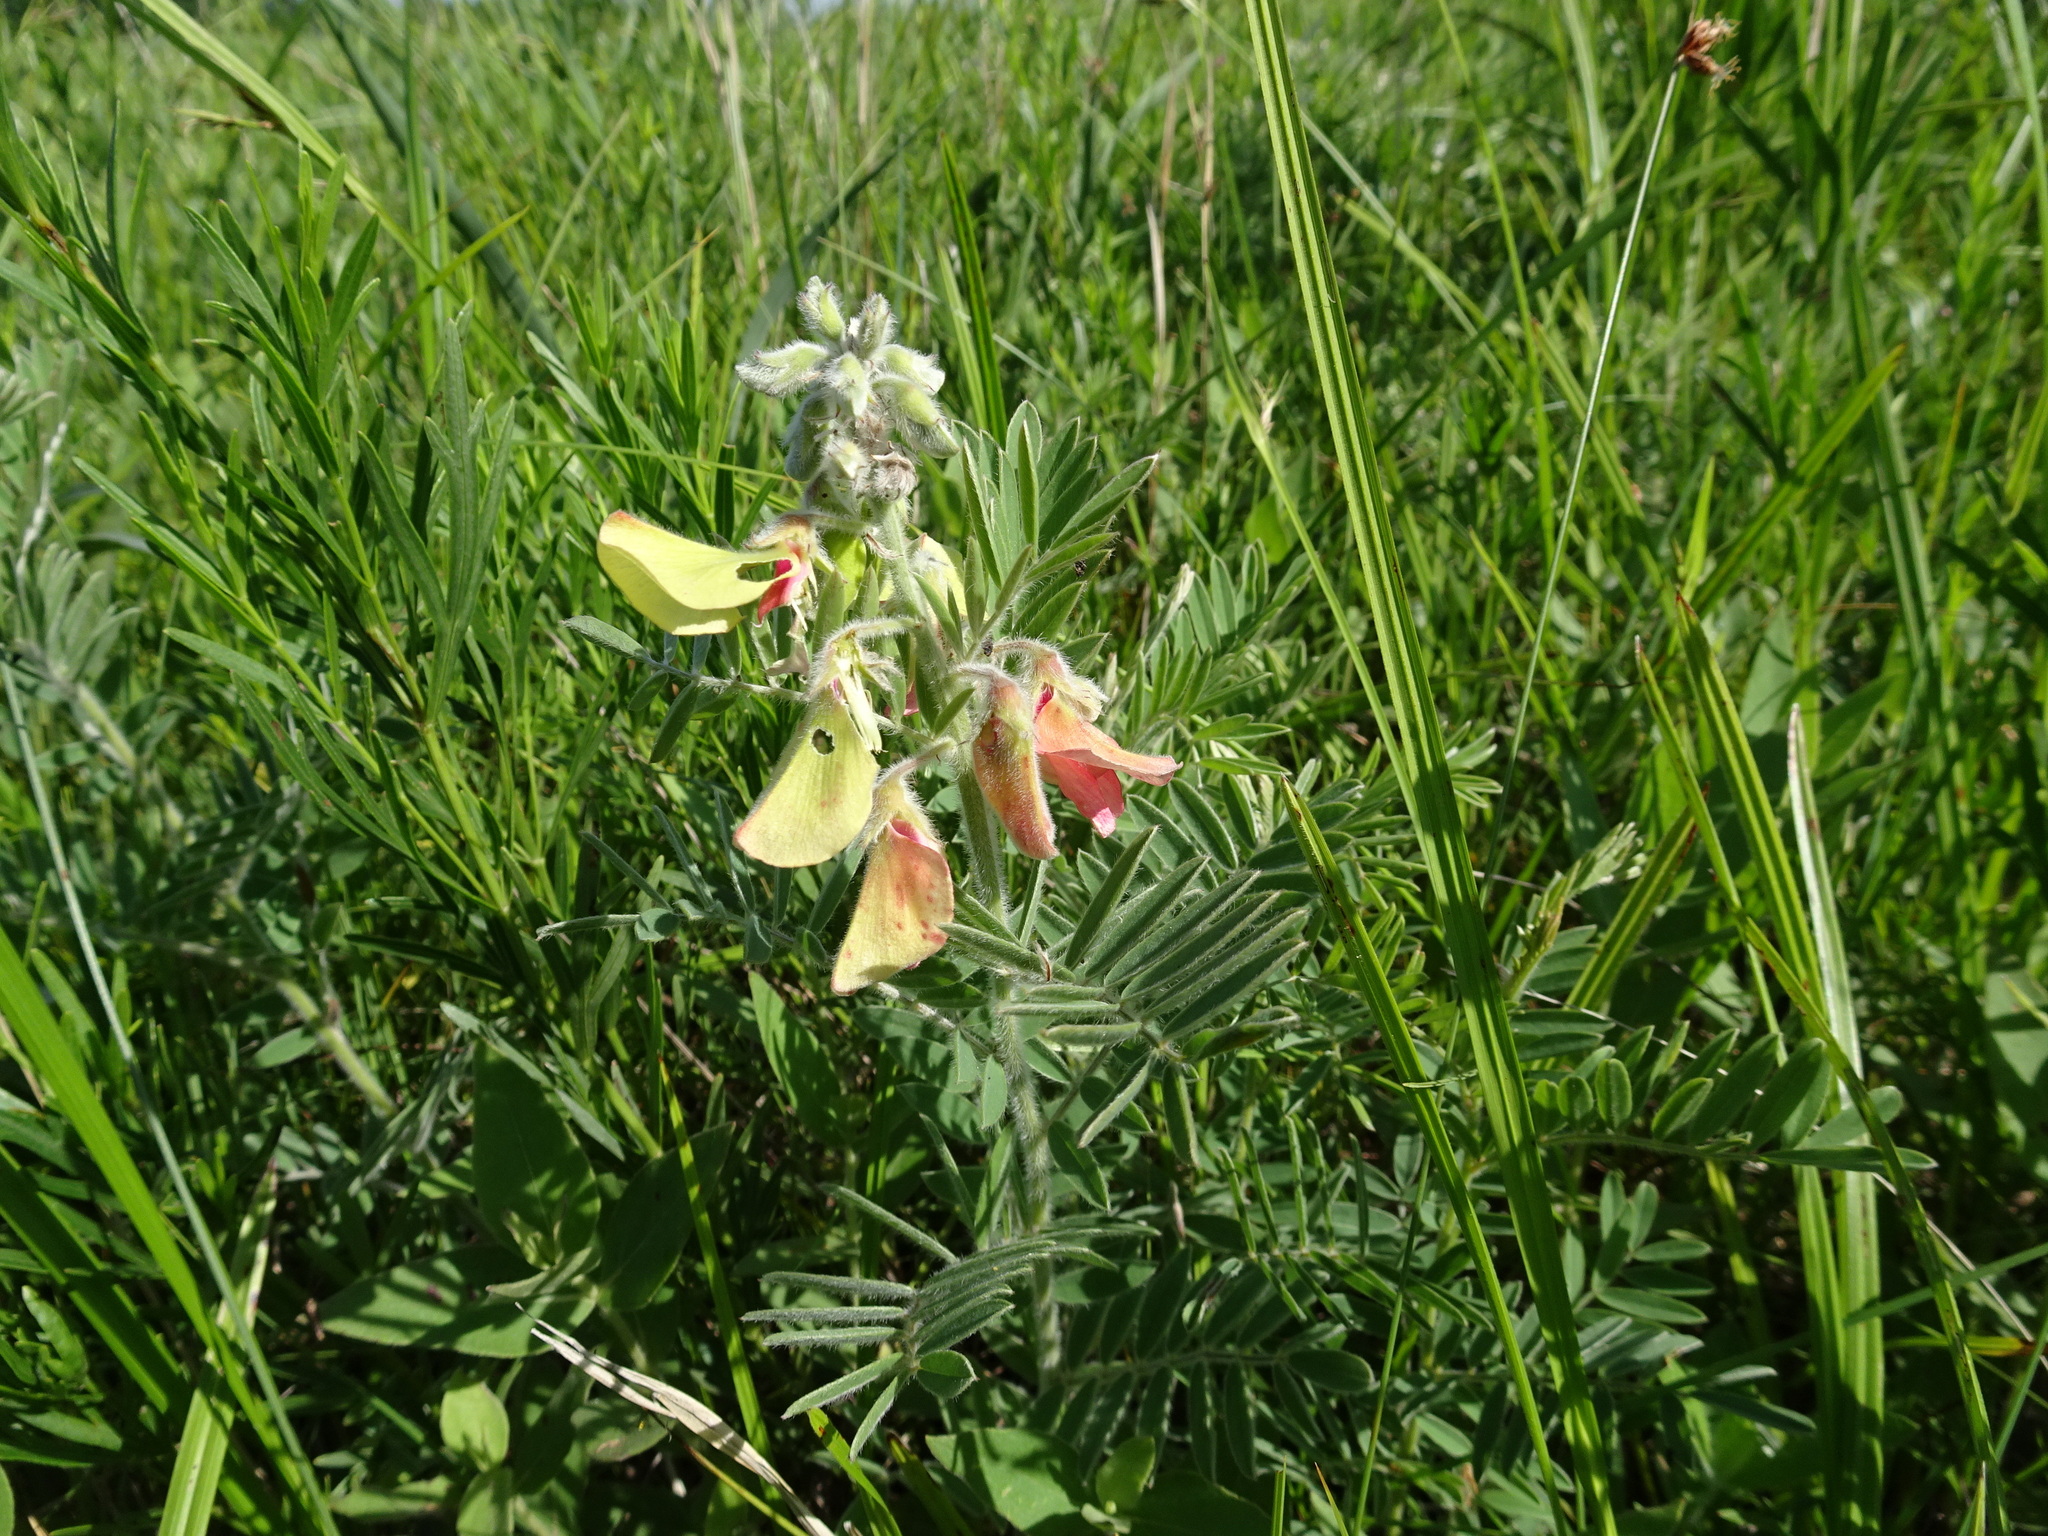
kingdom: Plantae
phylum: Tracheophyta
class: Magnoliopsida
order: Fabales
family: Fabaceae
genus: Tephrosia
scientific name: Tephrosia virginiana
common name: Rabbit-pea
